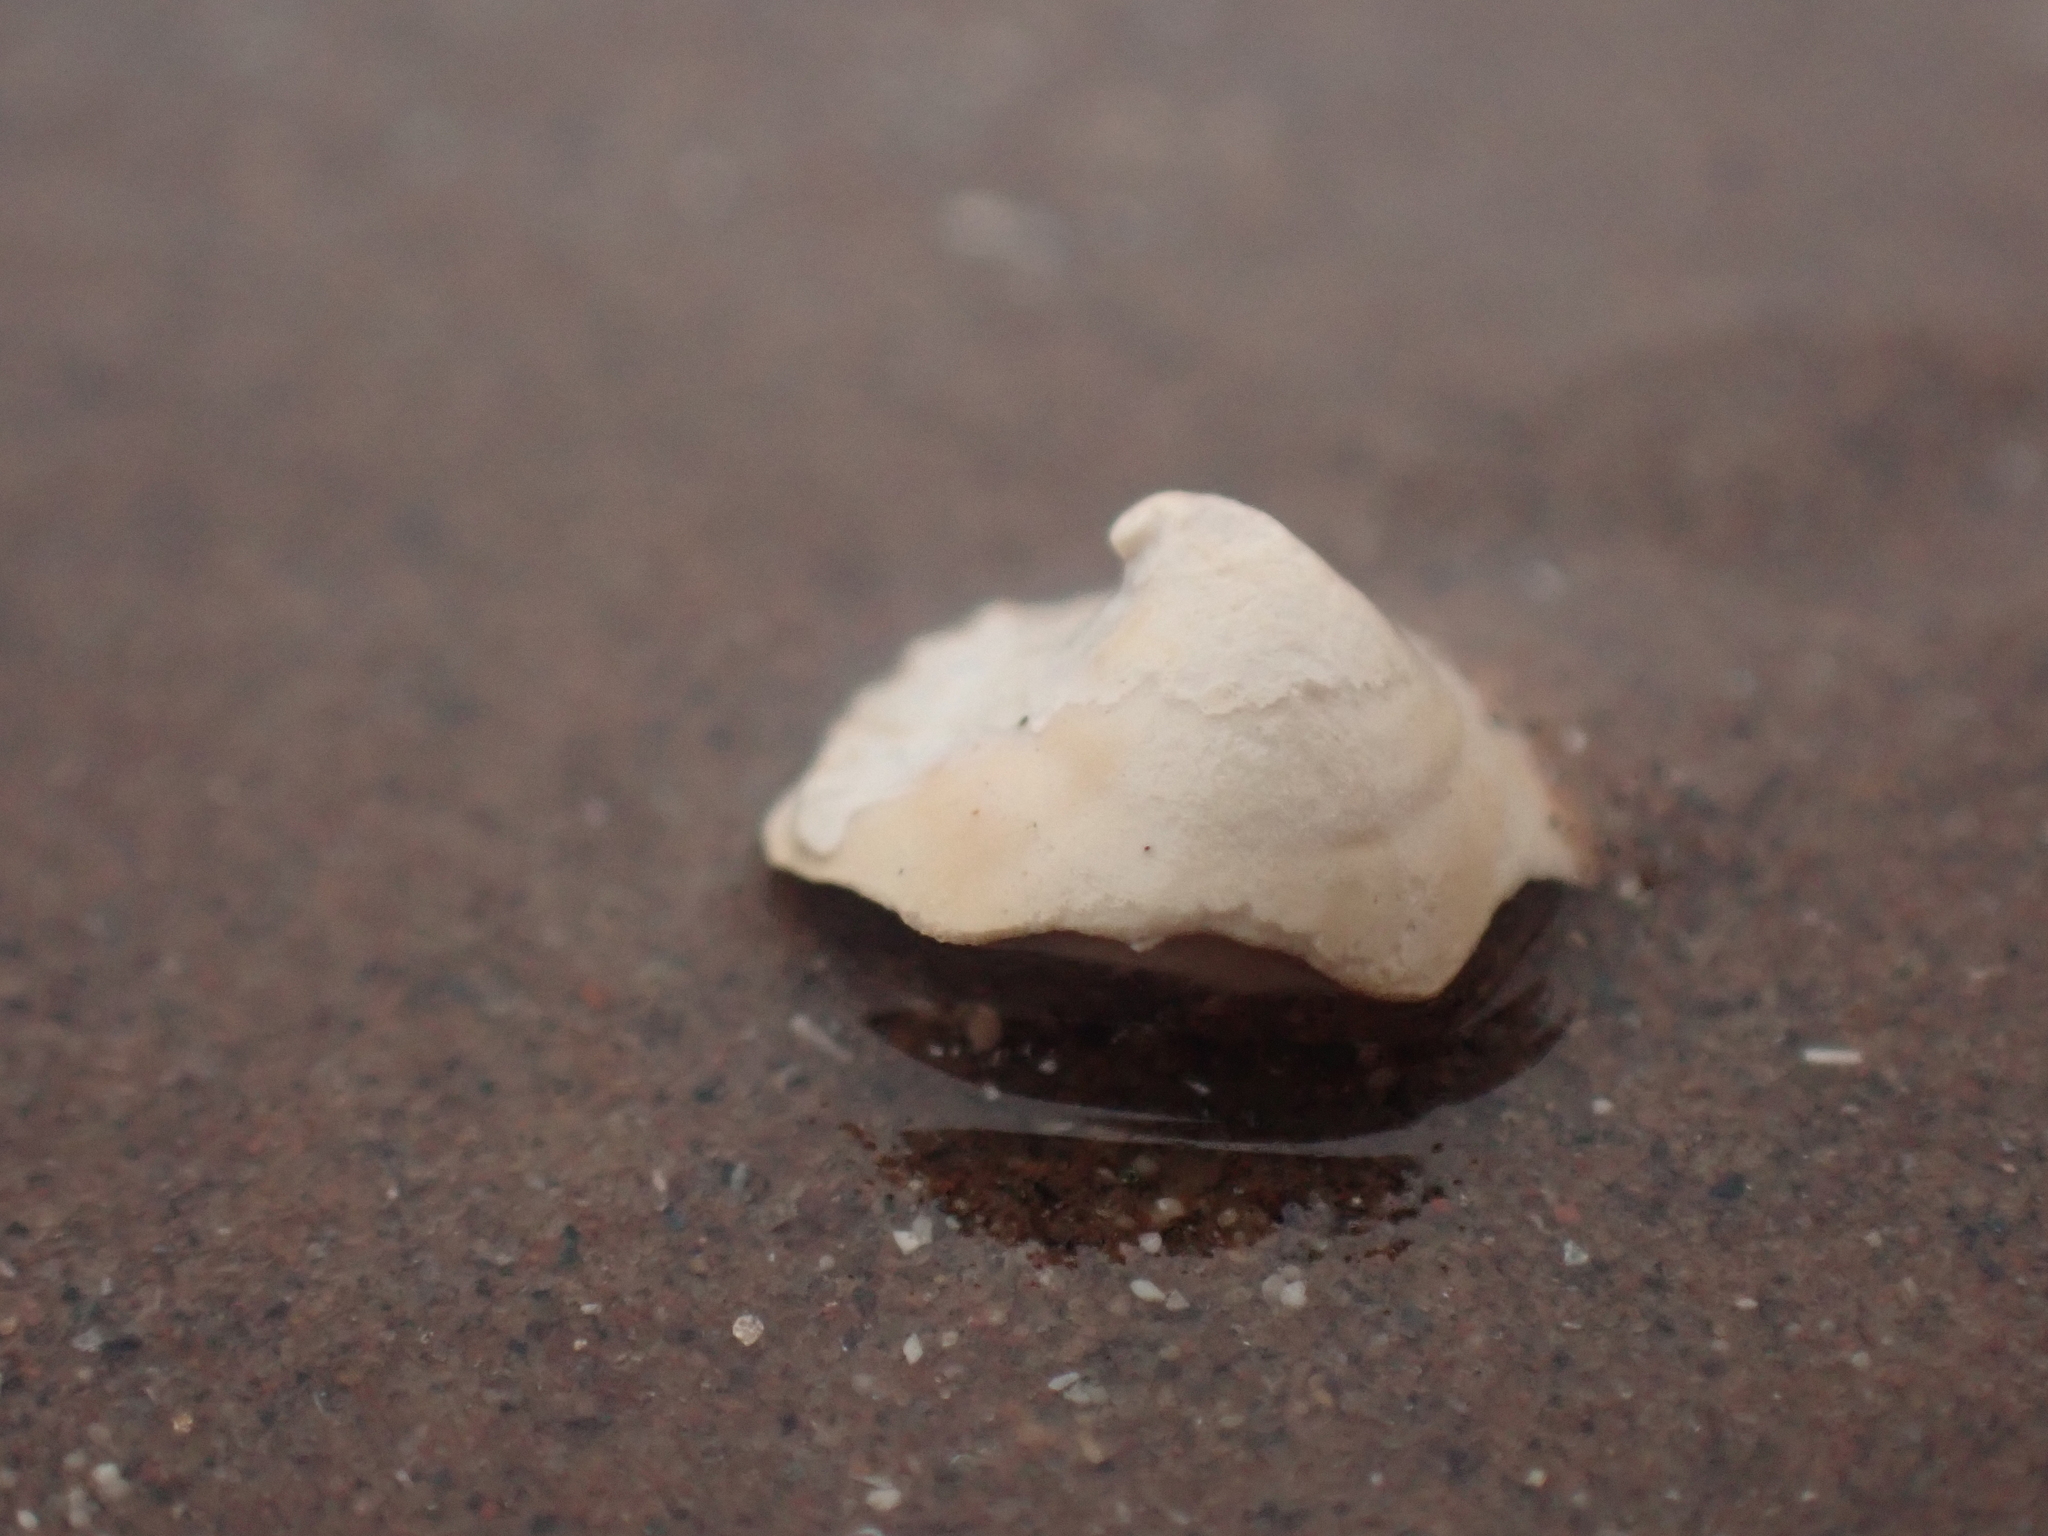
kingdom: Animalia
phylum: Mollusca
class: Gastropoda
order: Littorinimorpha
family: Calyptraeidae
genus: Crucibulum
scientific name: Crucibulum striatum
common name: Striate cup-and -saucer
